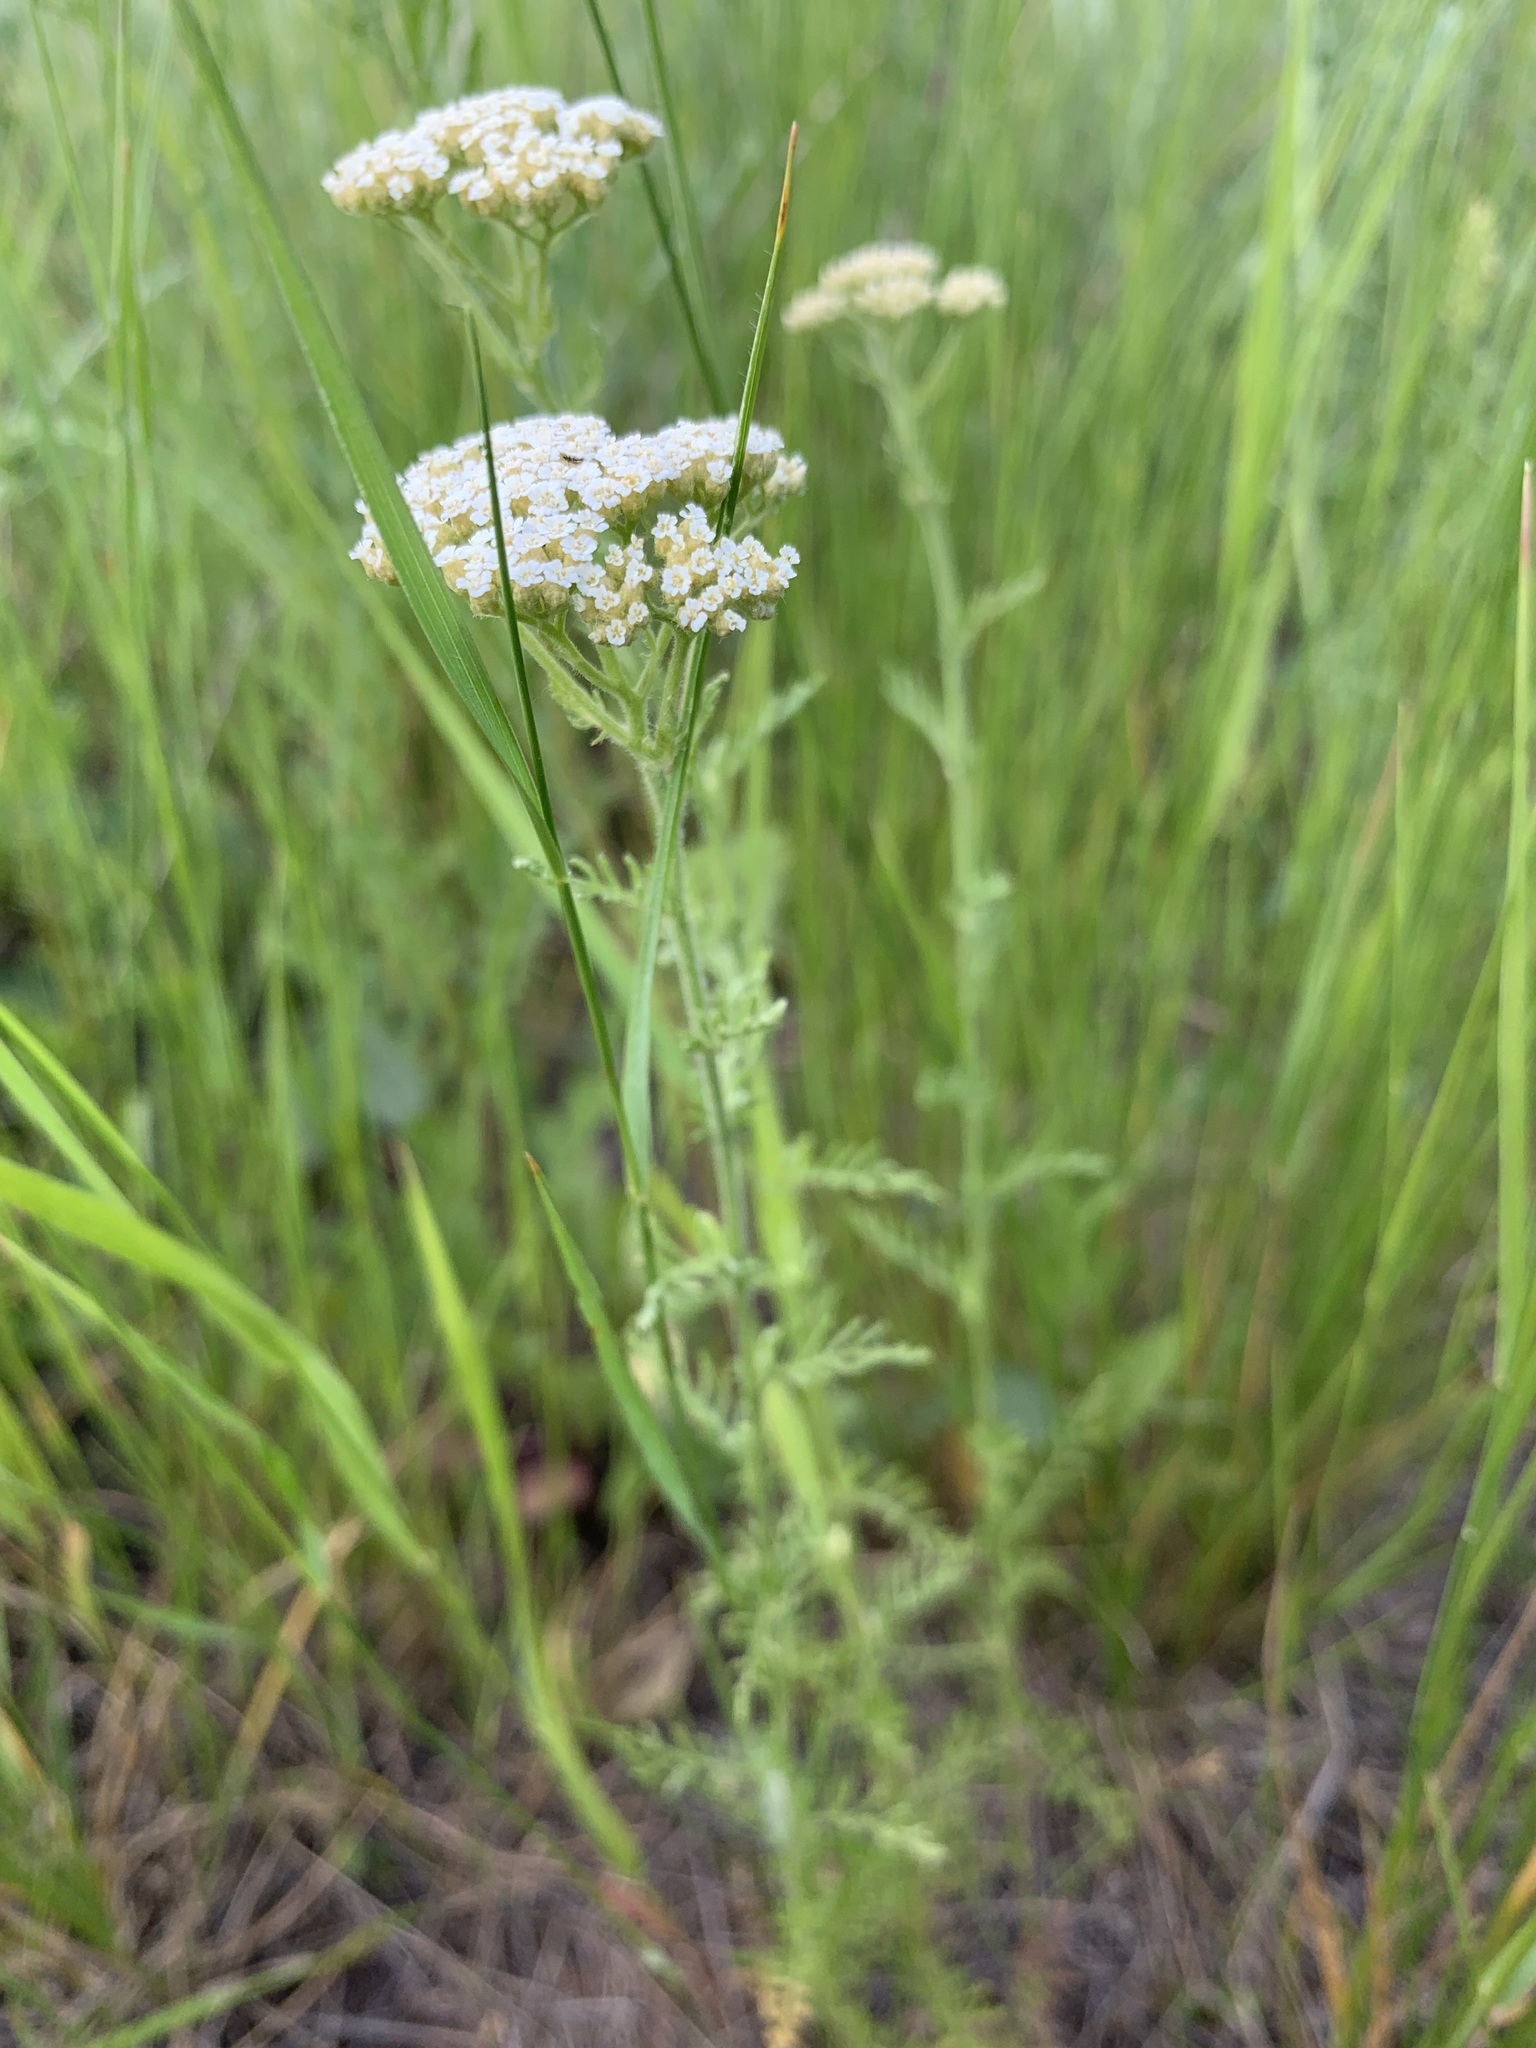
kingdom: Plantae
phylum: Tracheophyta
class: Magnoliopsida
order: Asterales
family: Asteraceae
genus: Achillea
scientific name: Achillea nobilis
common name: Noble yarrow
